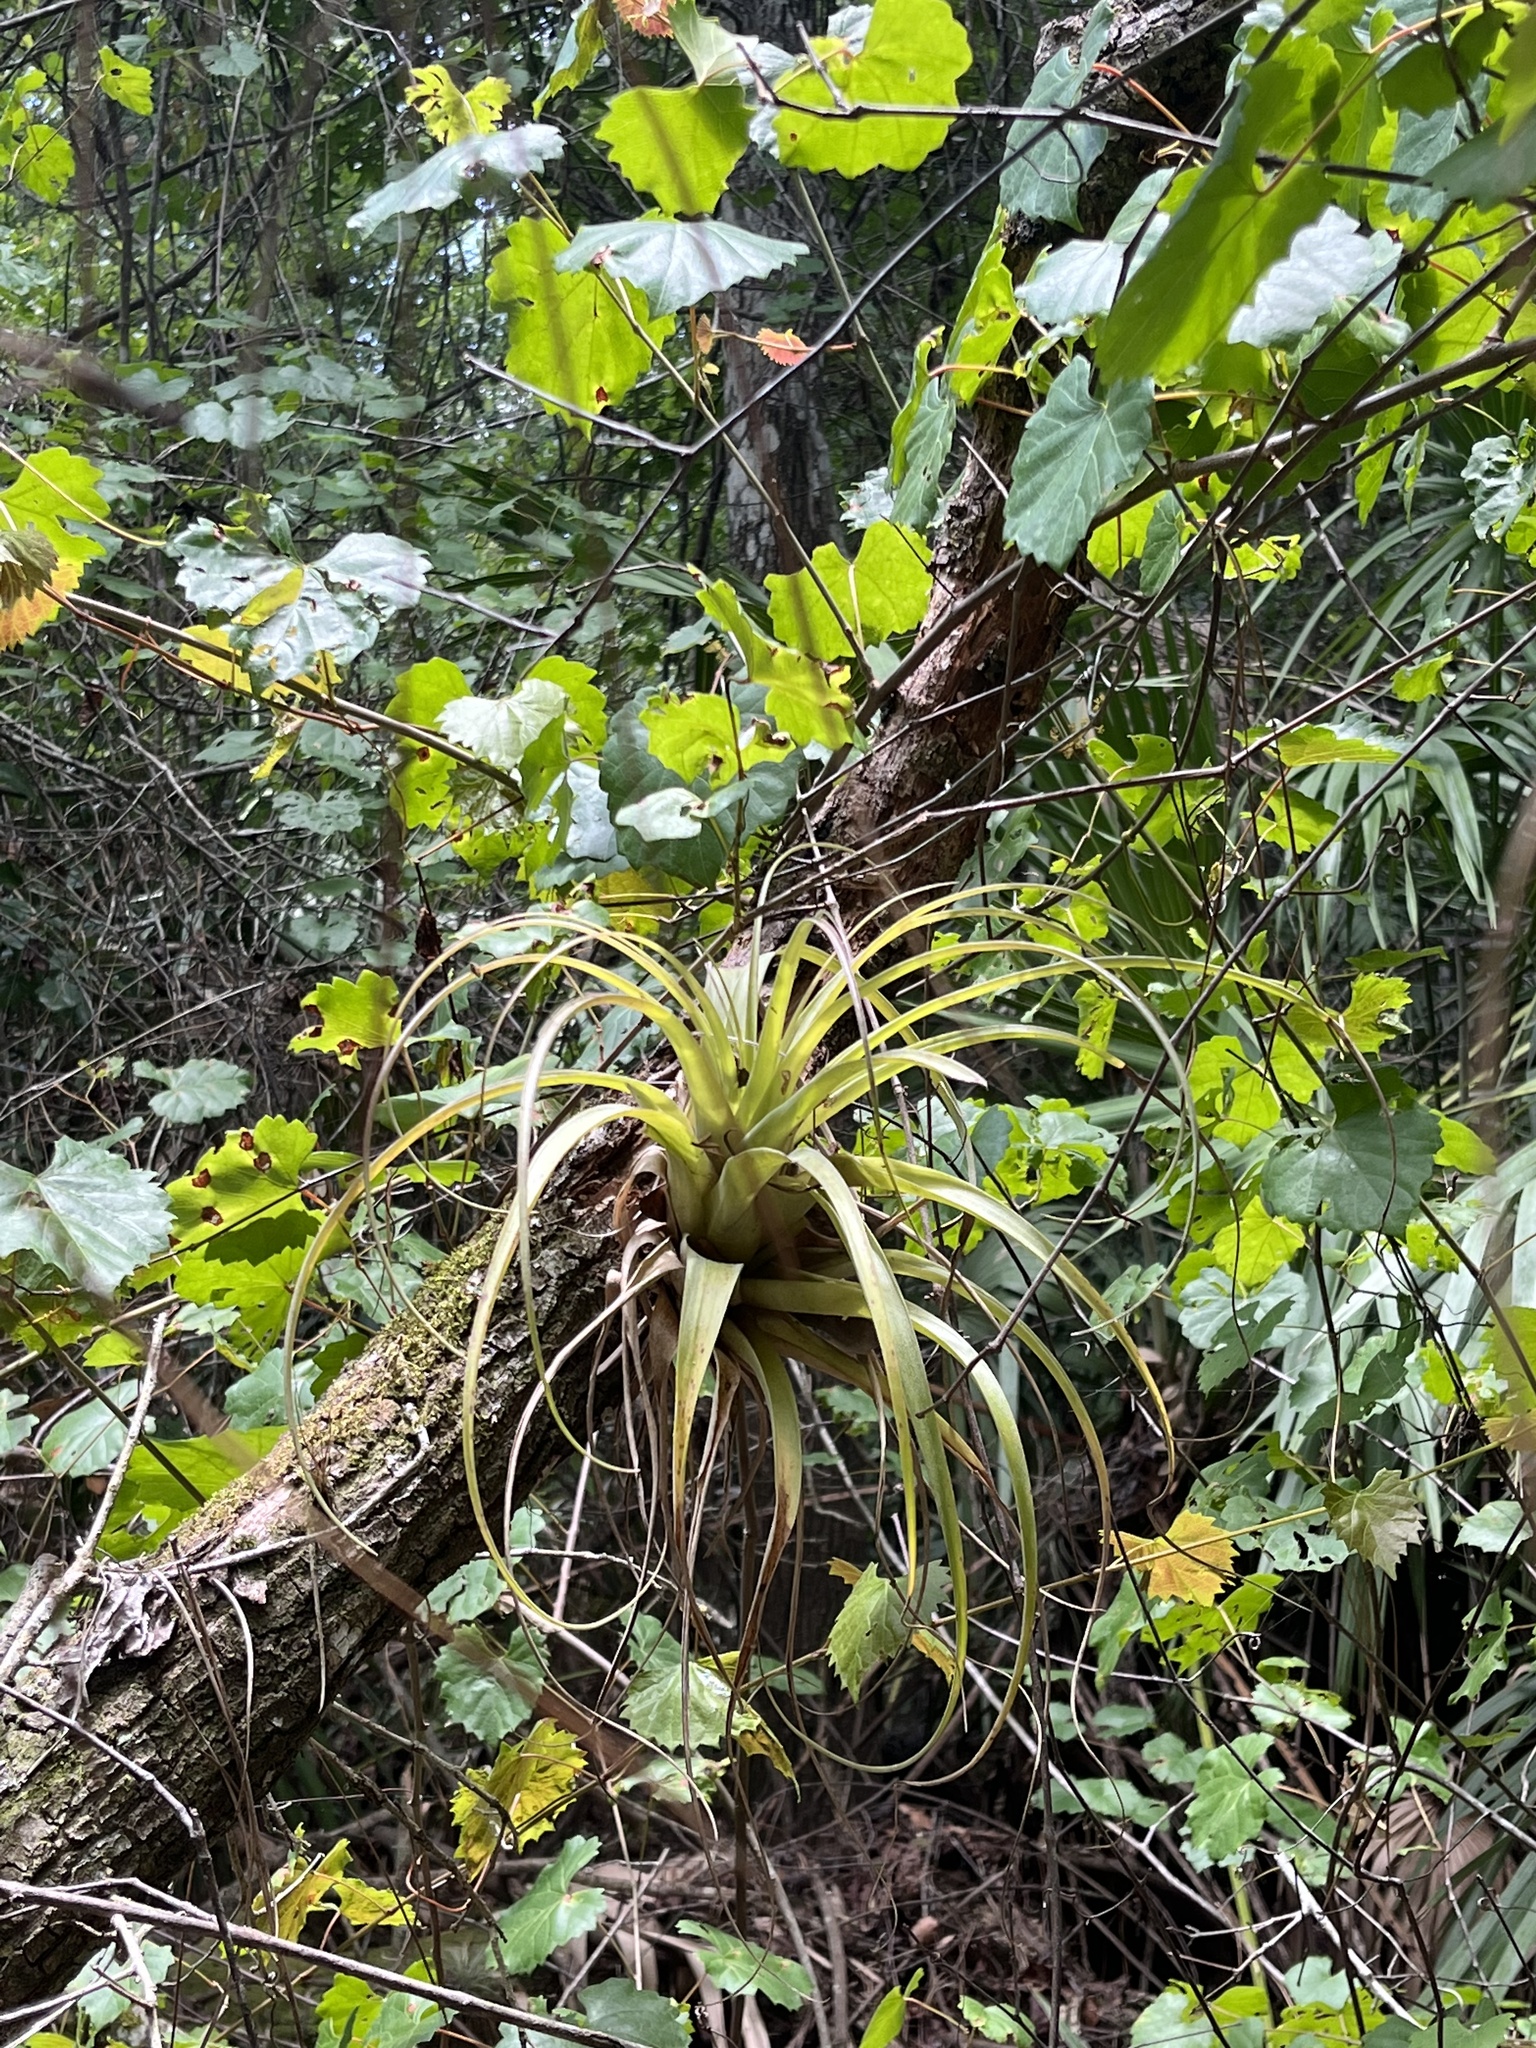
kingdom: Plantae
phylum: Tracheophyta
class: Liliopsida
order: Poales
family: Bromeliaceae
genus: Tillandsia
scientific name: Tillandsia utriculata
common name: Wild pine
